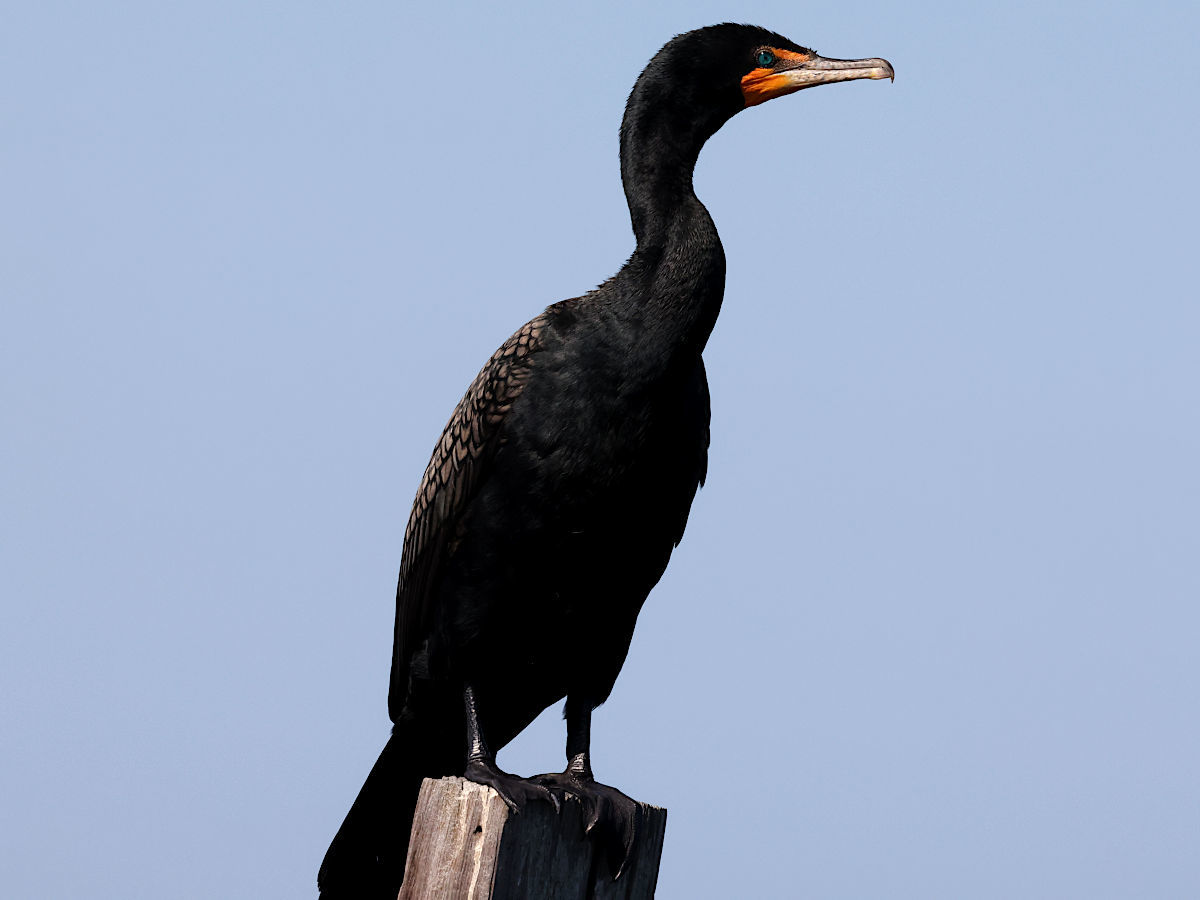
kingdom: Animalia
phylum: Chordata
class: Aves
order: Suliformes
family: Phalacrocoracidae
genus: Phalacrocorax
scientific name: Phalacrocorax auritus
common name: Double-crested cormorant
